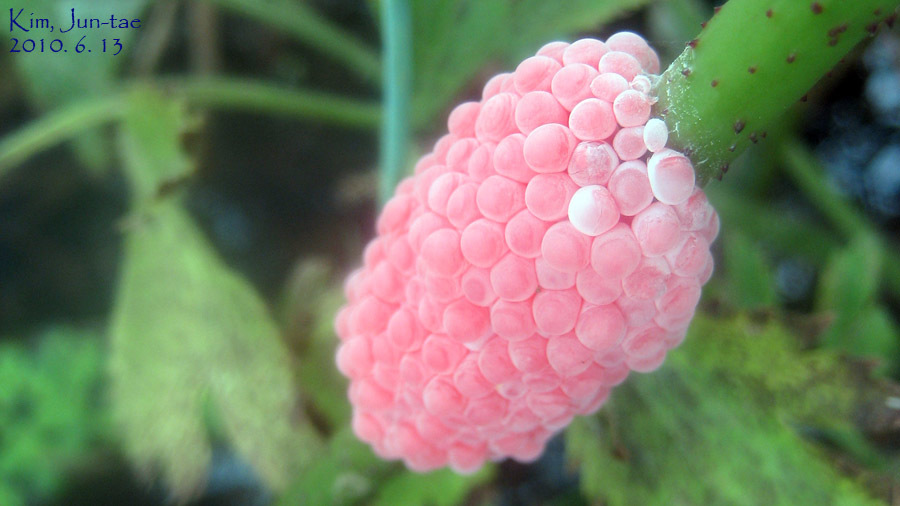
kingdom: Animalia
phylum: Mollusca
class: Gastropoda
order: Architaenioglossa
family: Ampullariidae
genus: Pomacea
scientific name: Pomacea canaliculata
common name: Channeled applesnail
